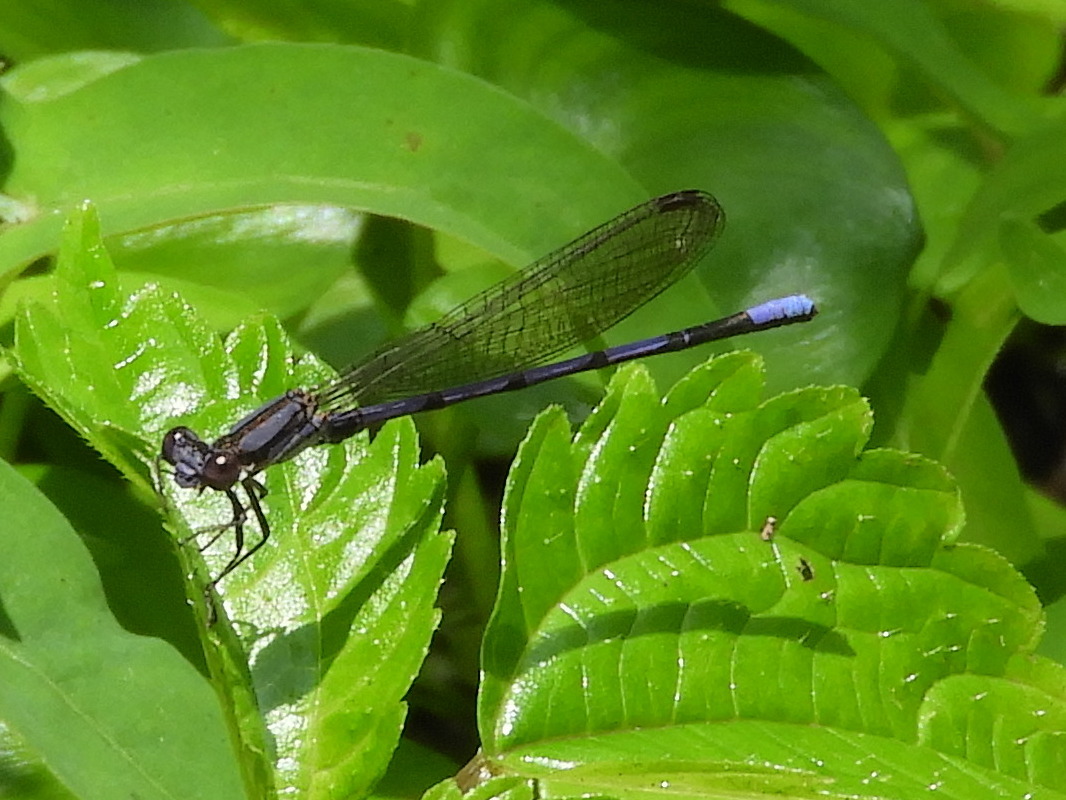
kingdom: Animalia
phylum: Arthropoda
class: Insecta
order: Odonata
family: Coenagrionidae
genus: Argia
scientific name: Argia fumipennis
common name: Variable dancer
